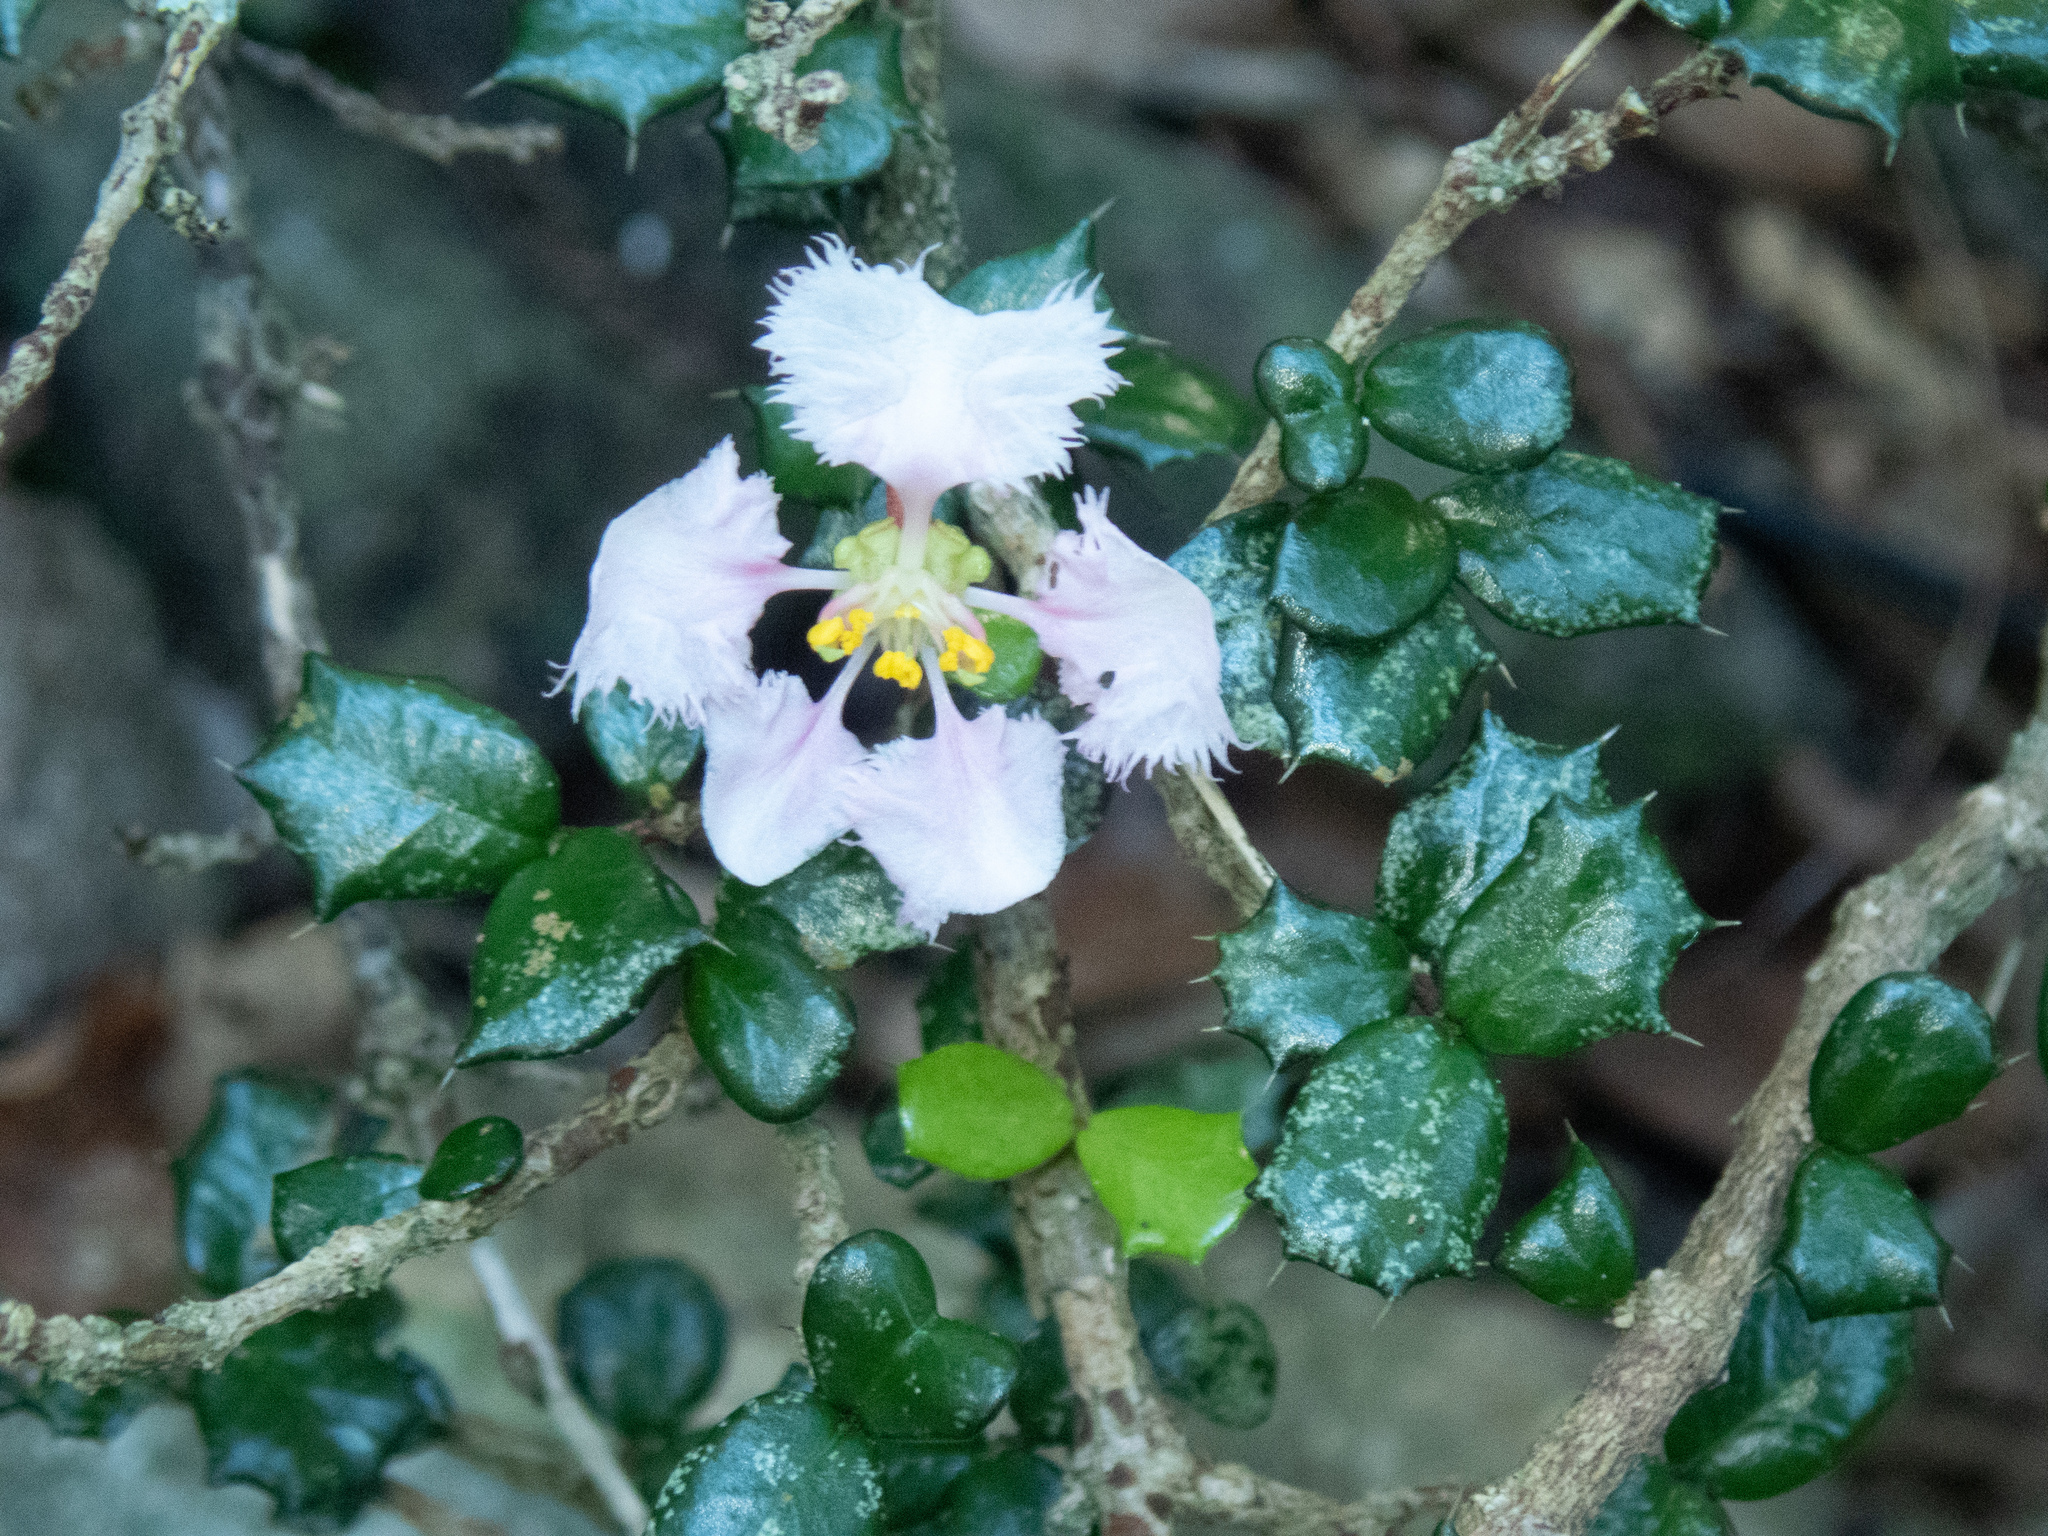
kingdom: Plantae
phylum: Tracheophyta
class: Magnoliopsida
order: Malpighiales
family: Malpighiaceae
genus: Malpighia
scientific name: Malpighia coccigera
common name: Singapore holly
